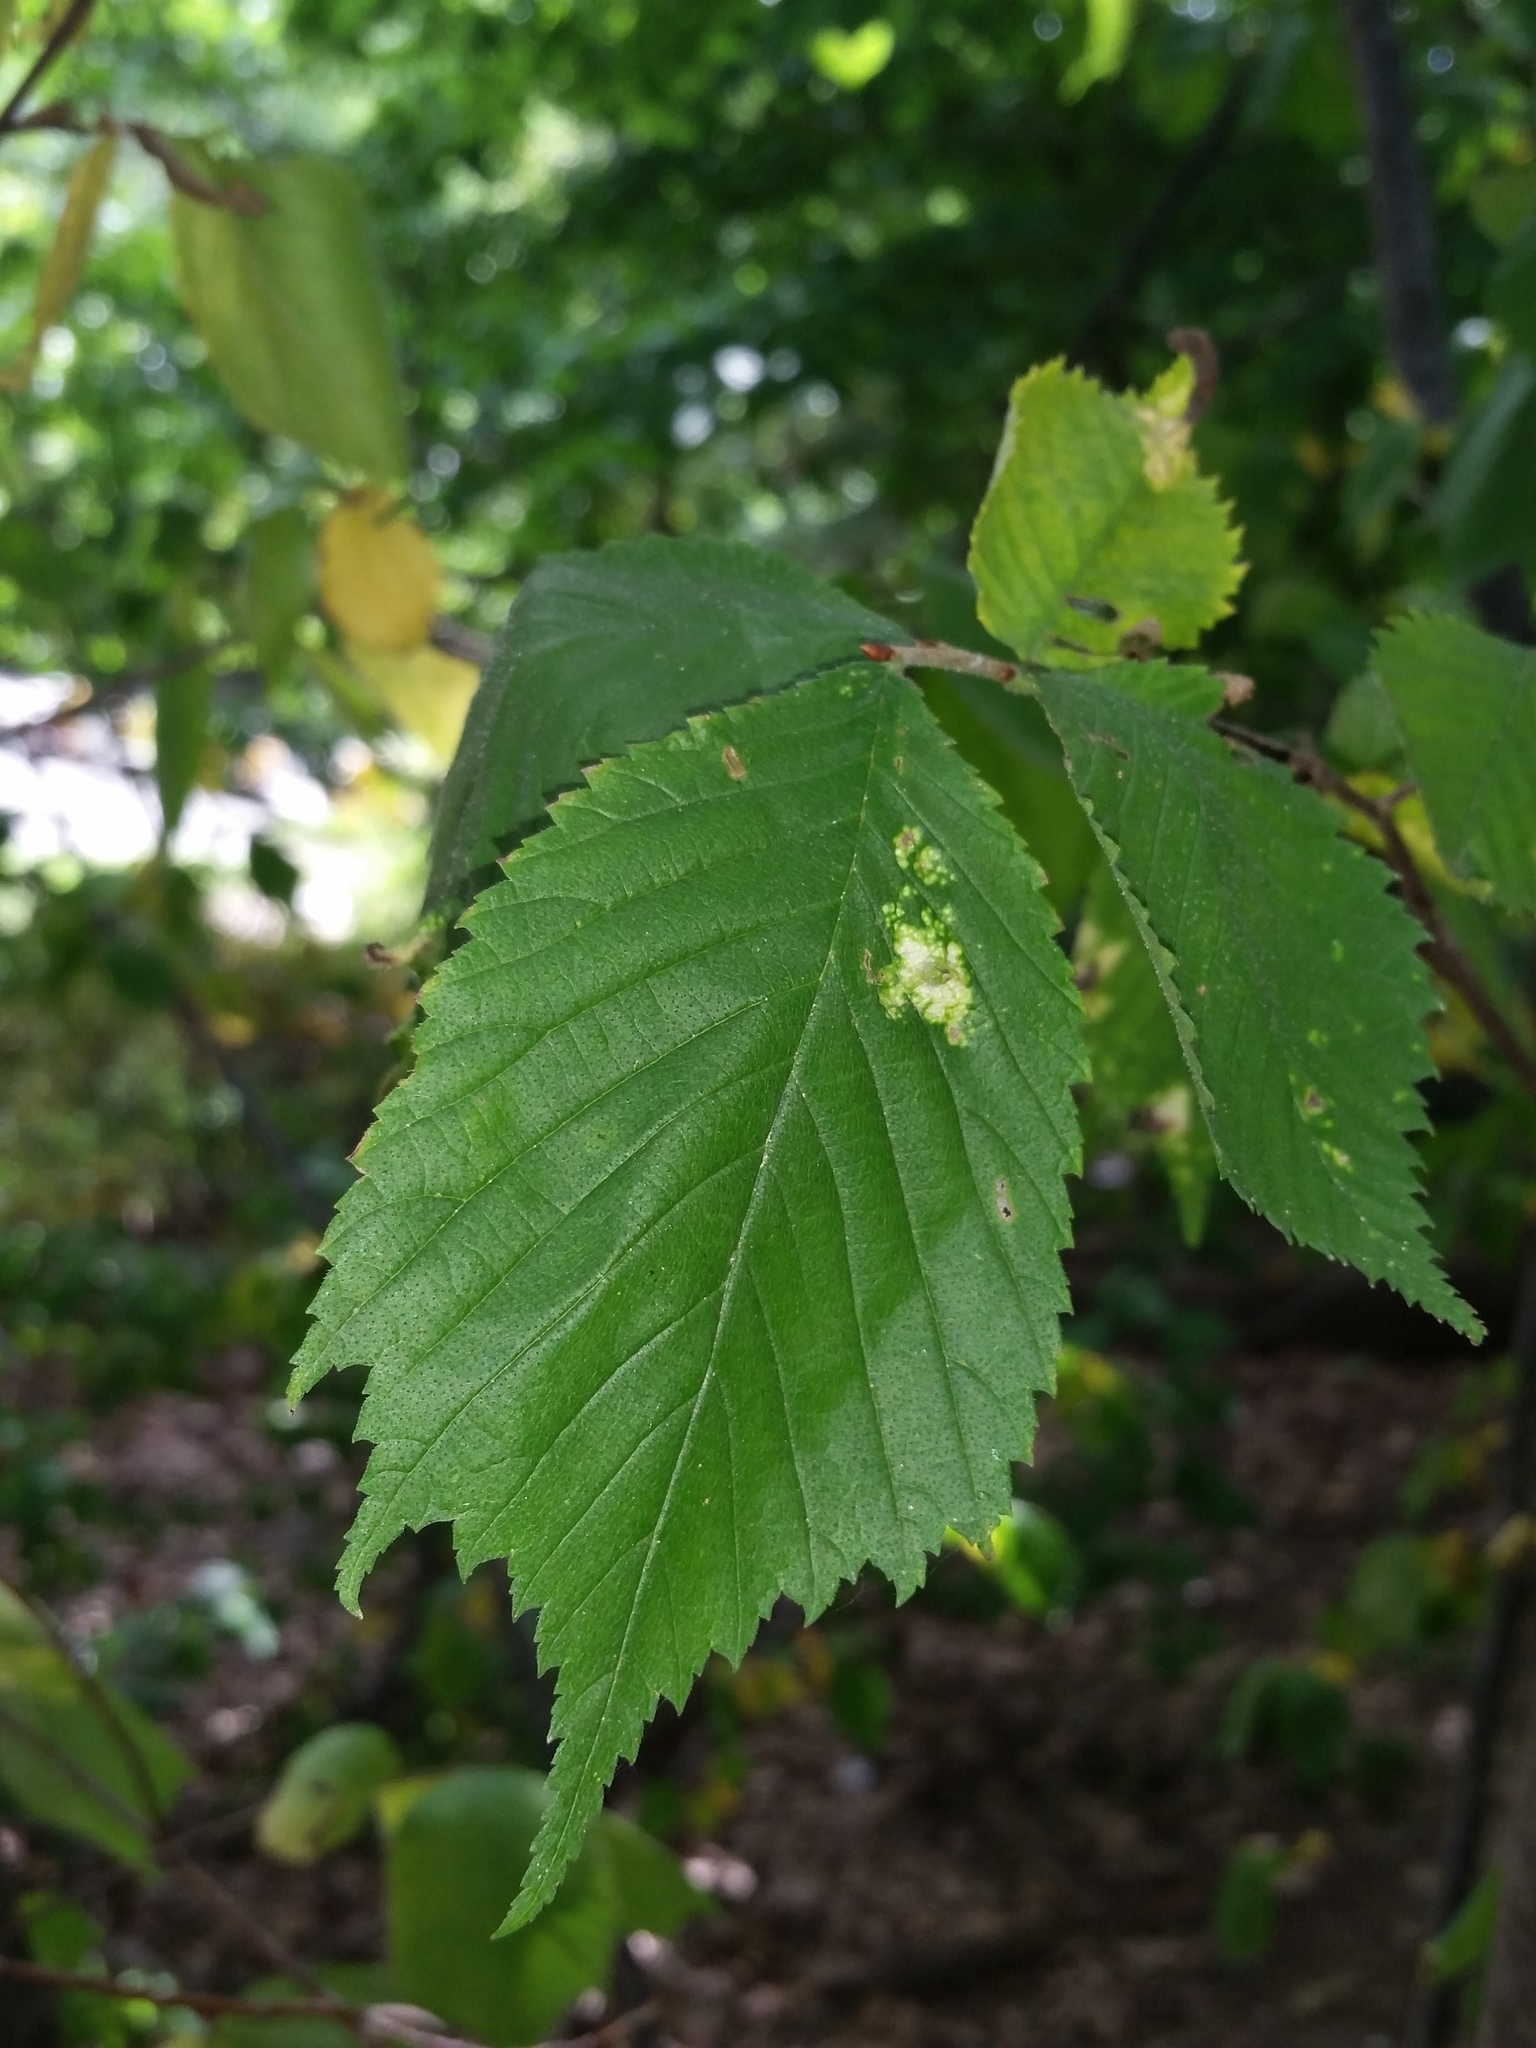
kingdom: Plantae
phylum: Tracheophyta
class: Magnoliopsida
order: Rosales
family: Ulmaceae
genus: Ulmus
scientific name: Ulmus glabra
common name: Wych elm
